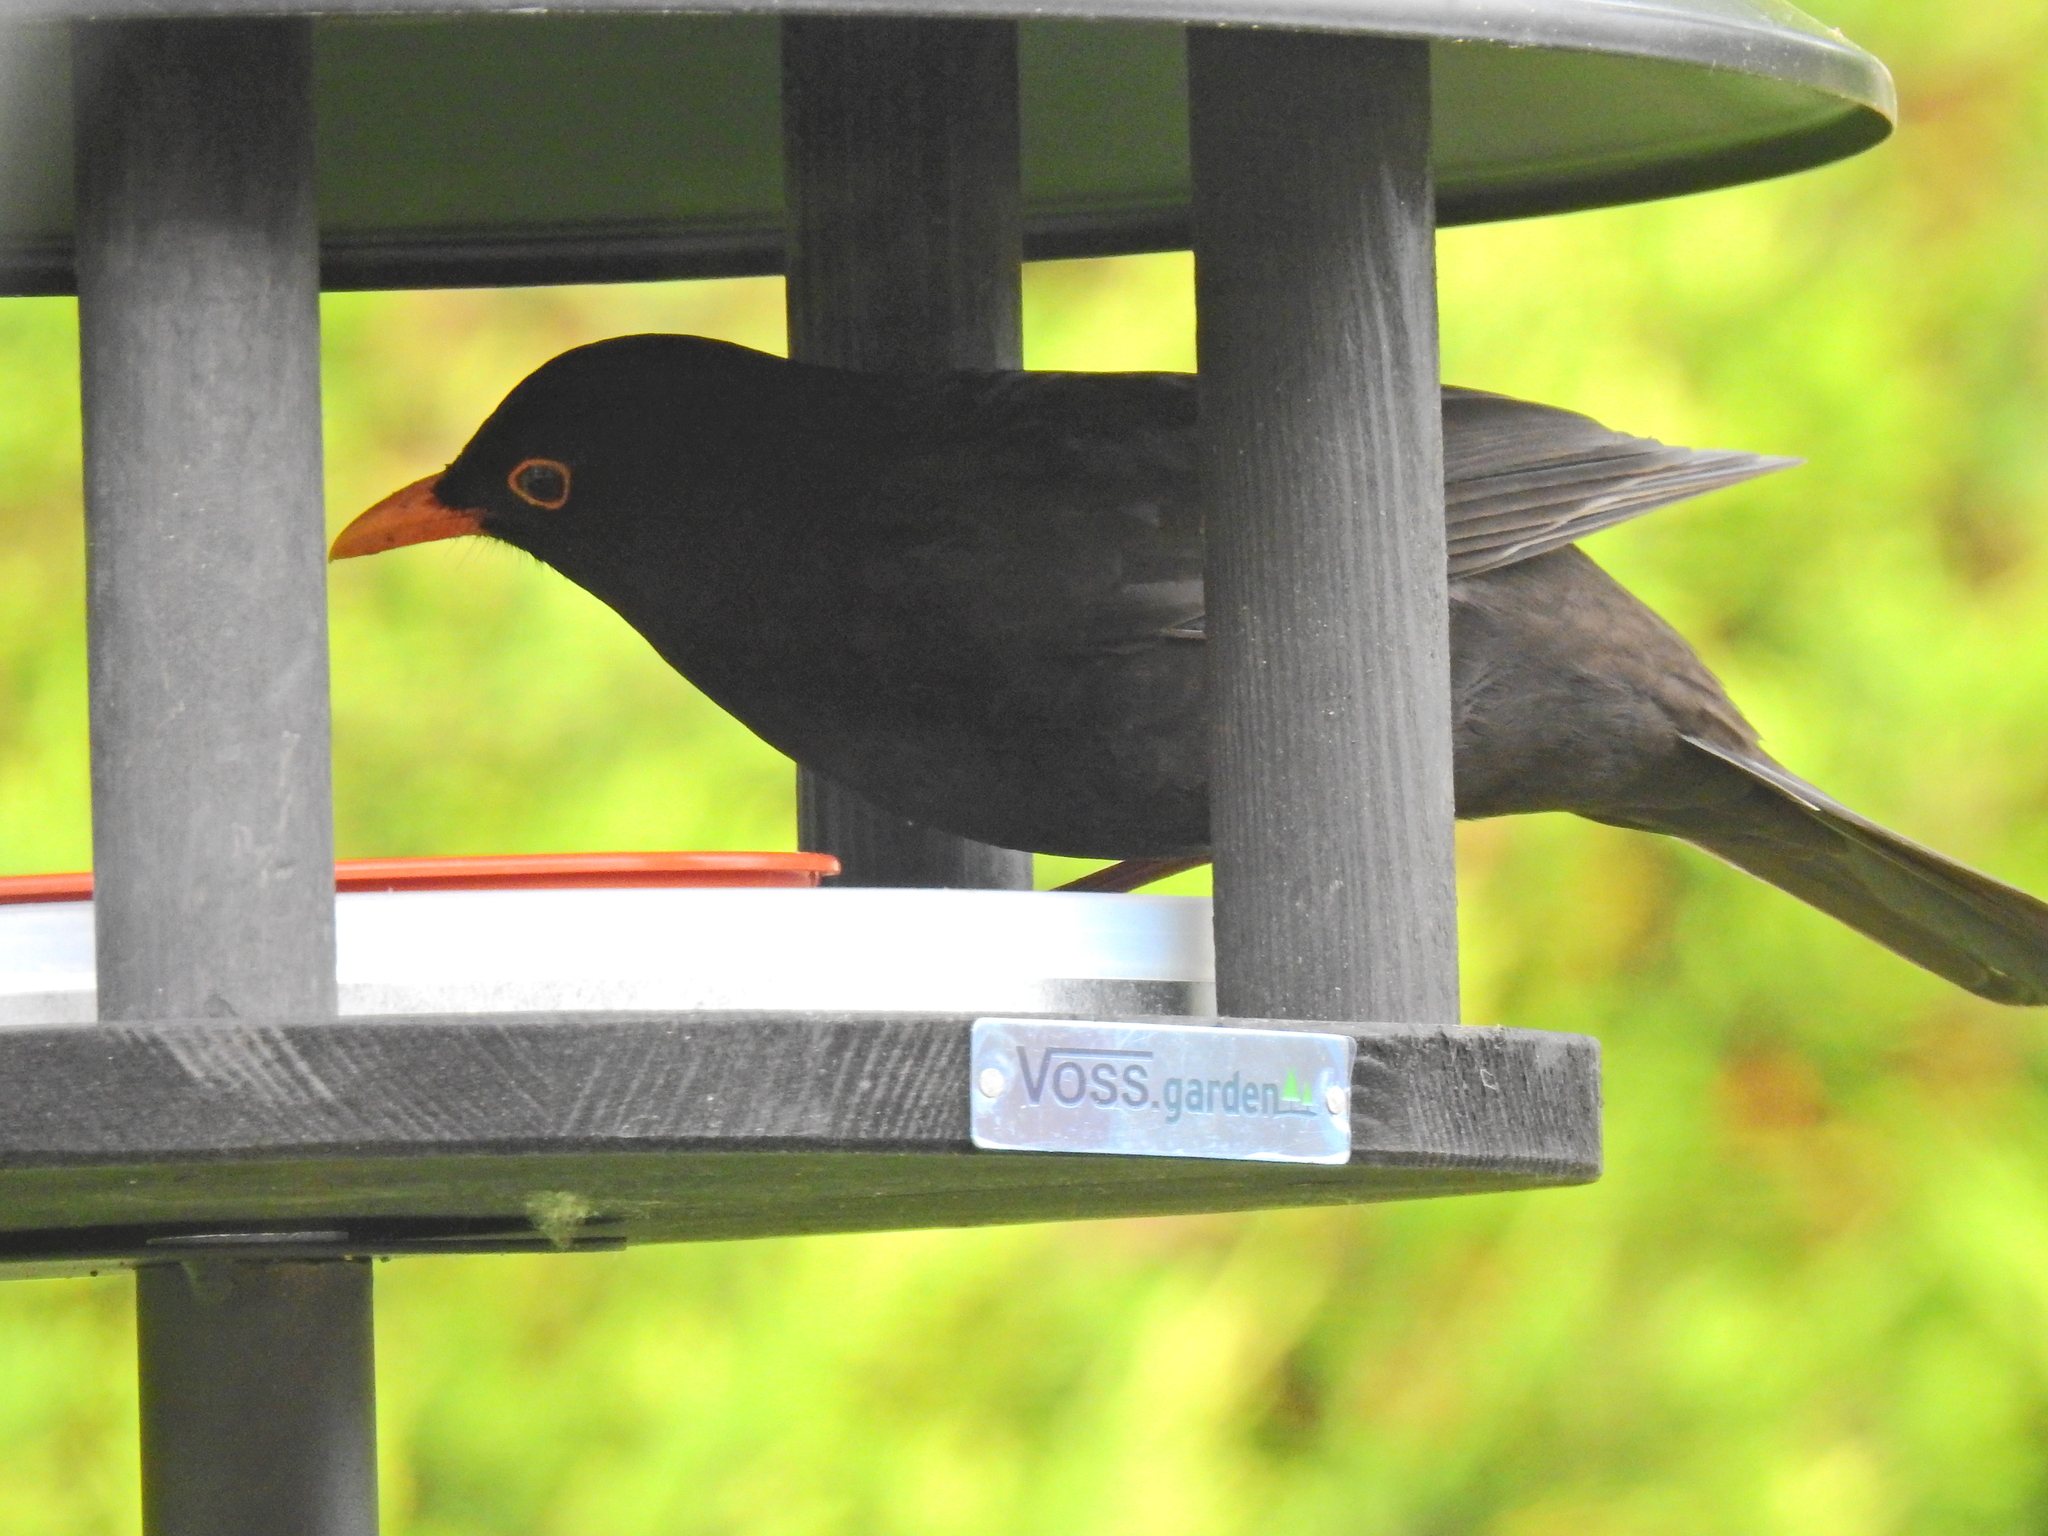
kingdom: Animalia
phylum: Chordata
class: Aves
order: Passeriformes
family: Turdidae
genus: Turdus
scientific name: Turdus merula
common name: Common blackbird
